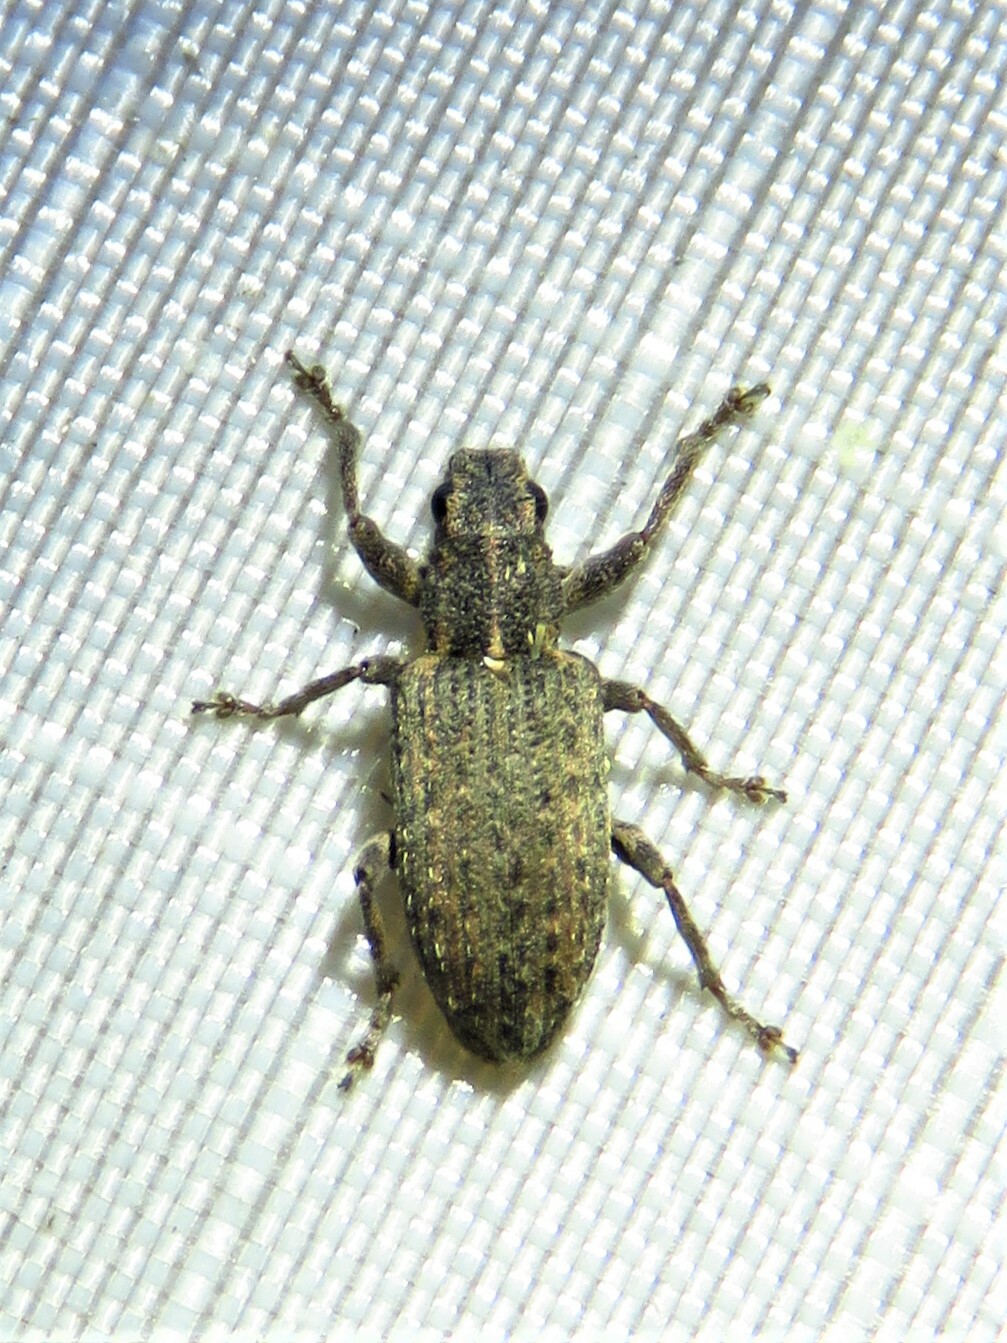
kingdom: Animalia
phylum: Arthropoda
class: Insecta
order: Coleoptera
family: Curculionidae
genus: Sitones
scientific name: Sitones californius
